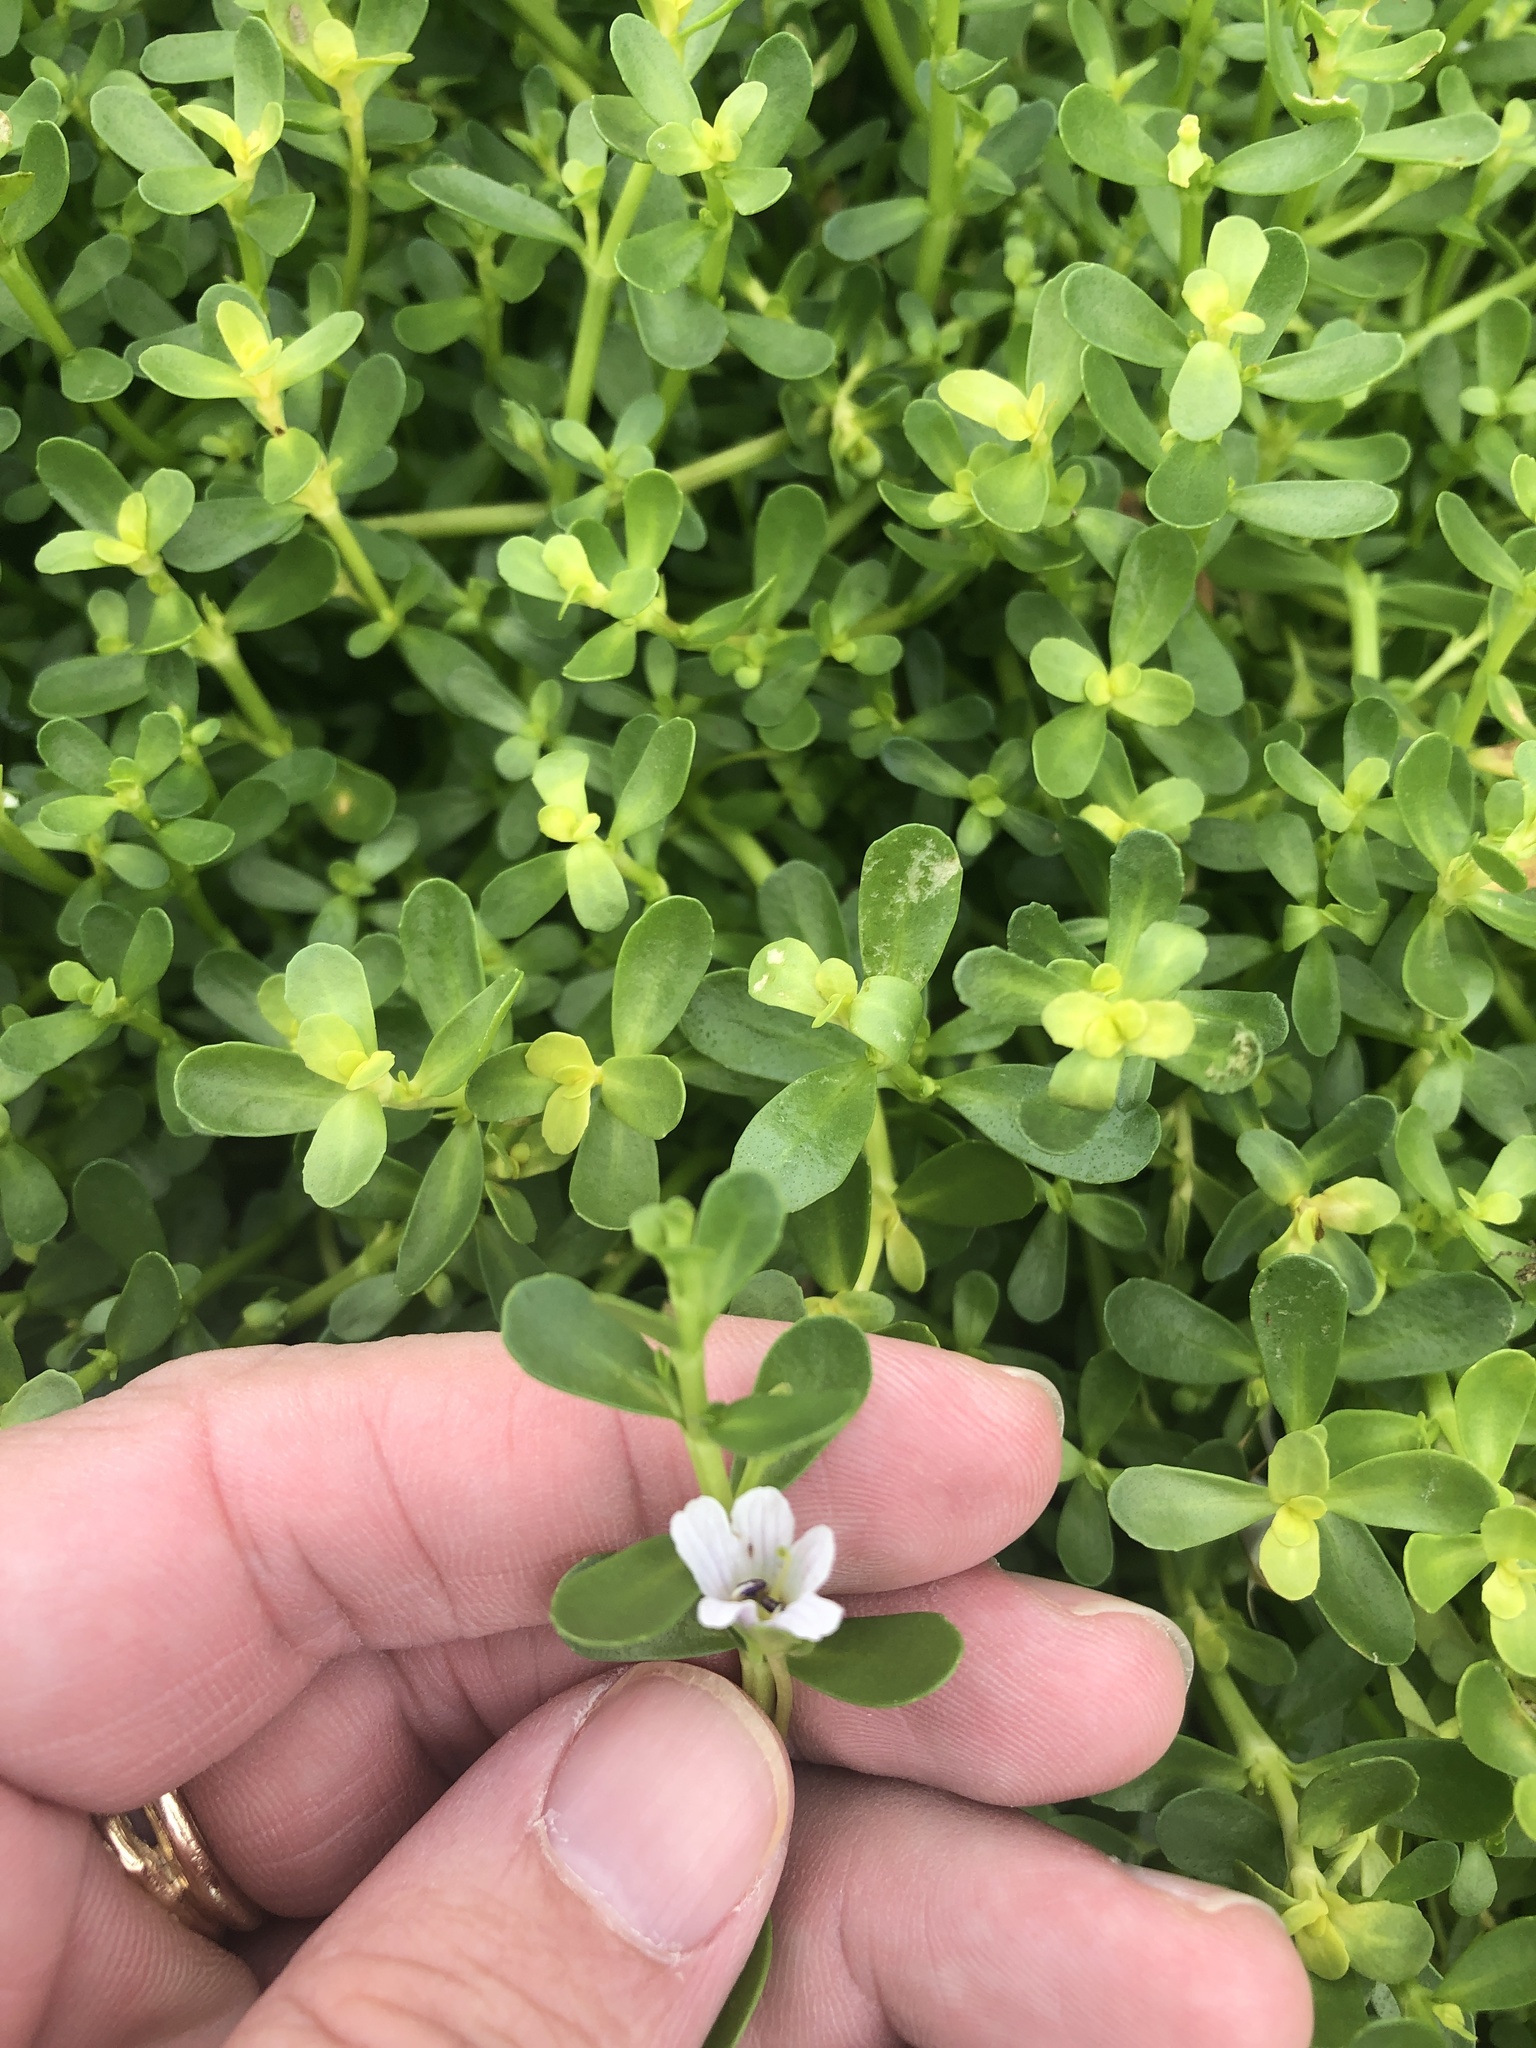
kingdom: Plantae
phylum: Tracheophyta
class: Magnoliopsida
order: Lamiales
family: Plantaginaceae
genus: Bacopa
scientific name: Bacopa monnieri
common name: Indian-pennywort
